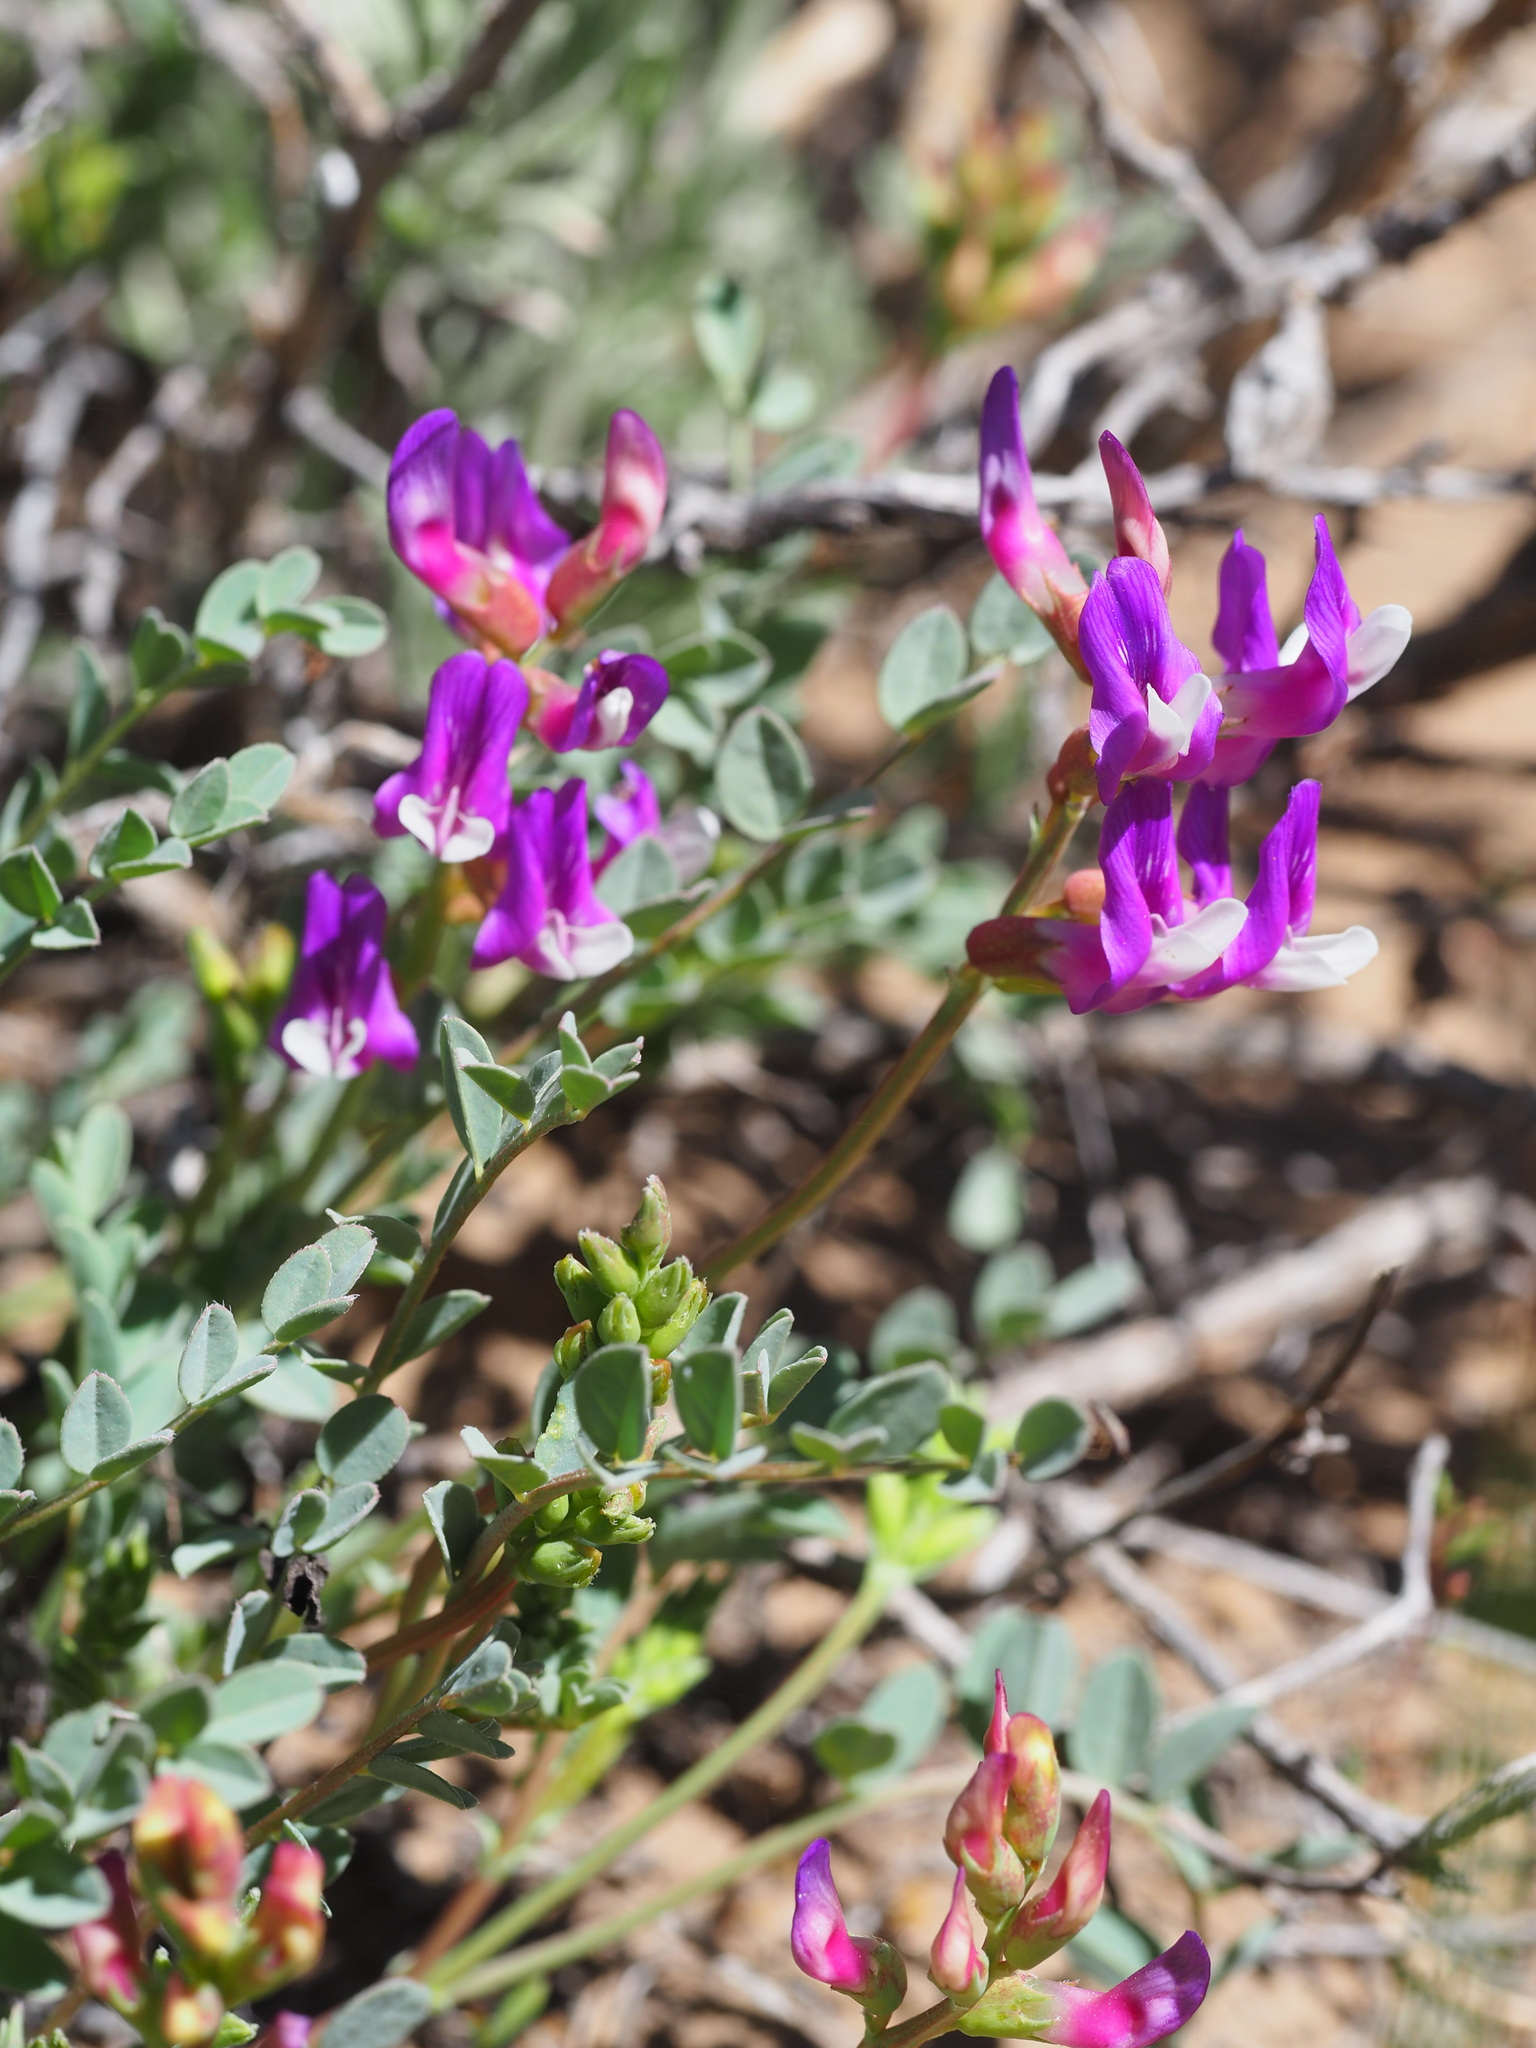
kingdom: Plantae
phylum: Tracheophyta
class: Magnoliopsida
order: Fabales
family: Fabaceae
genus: Astragalus
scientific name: Astragalus oophorus
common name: Egg milkvetch
